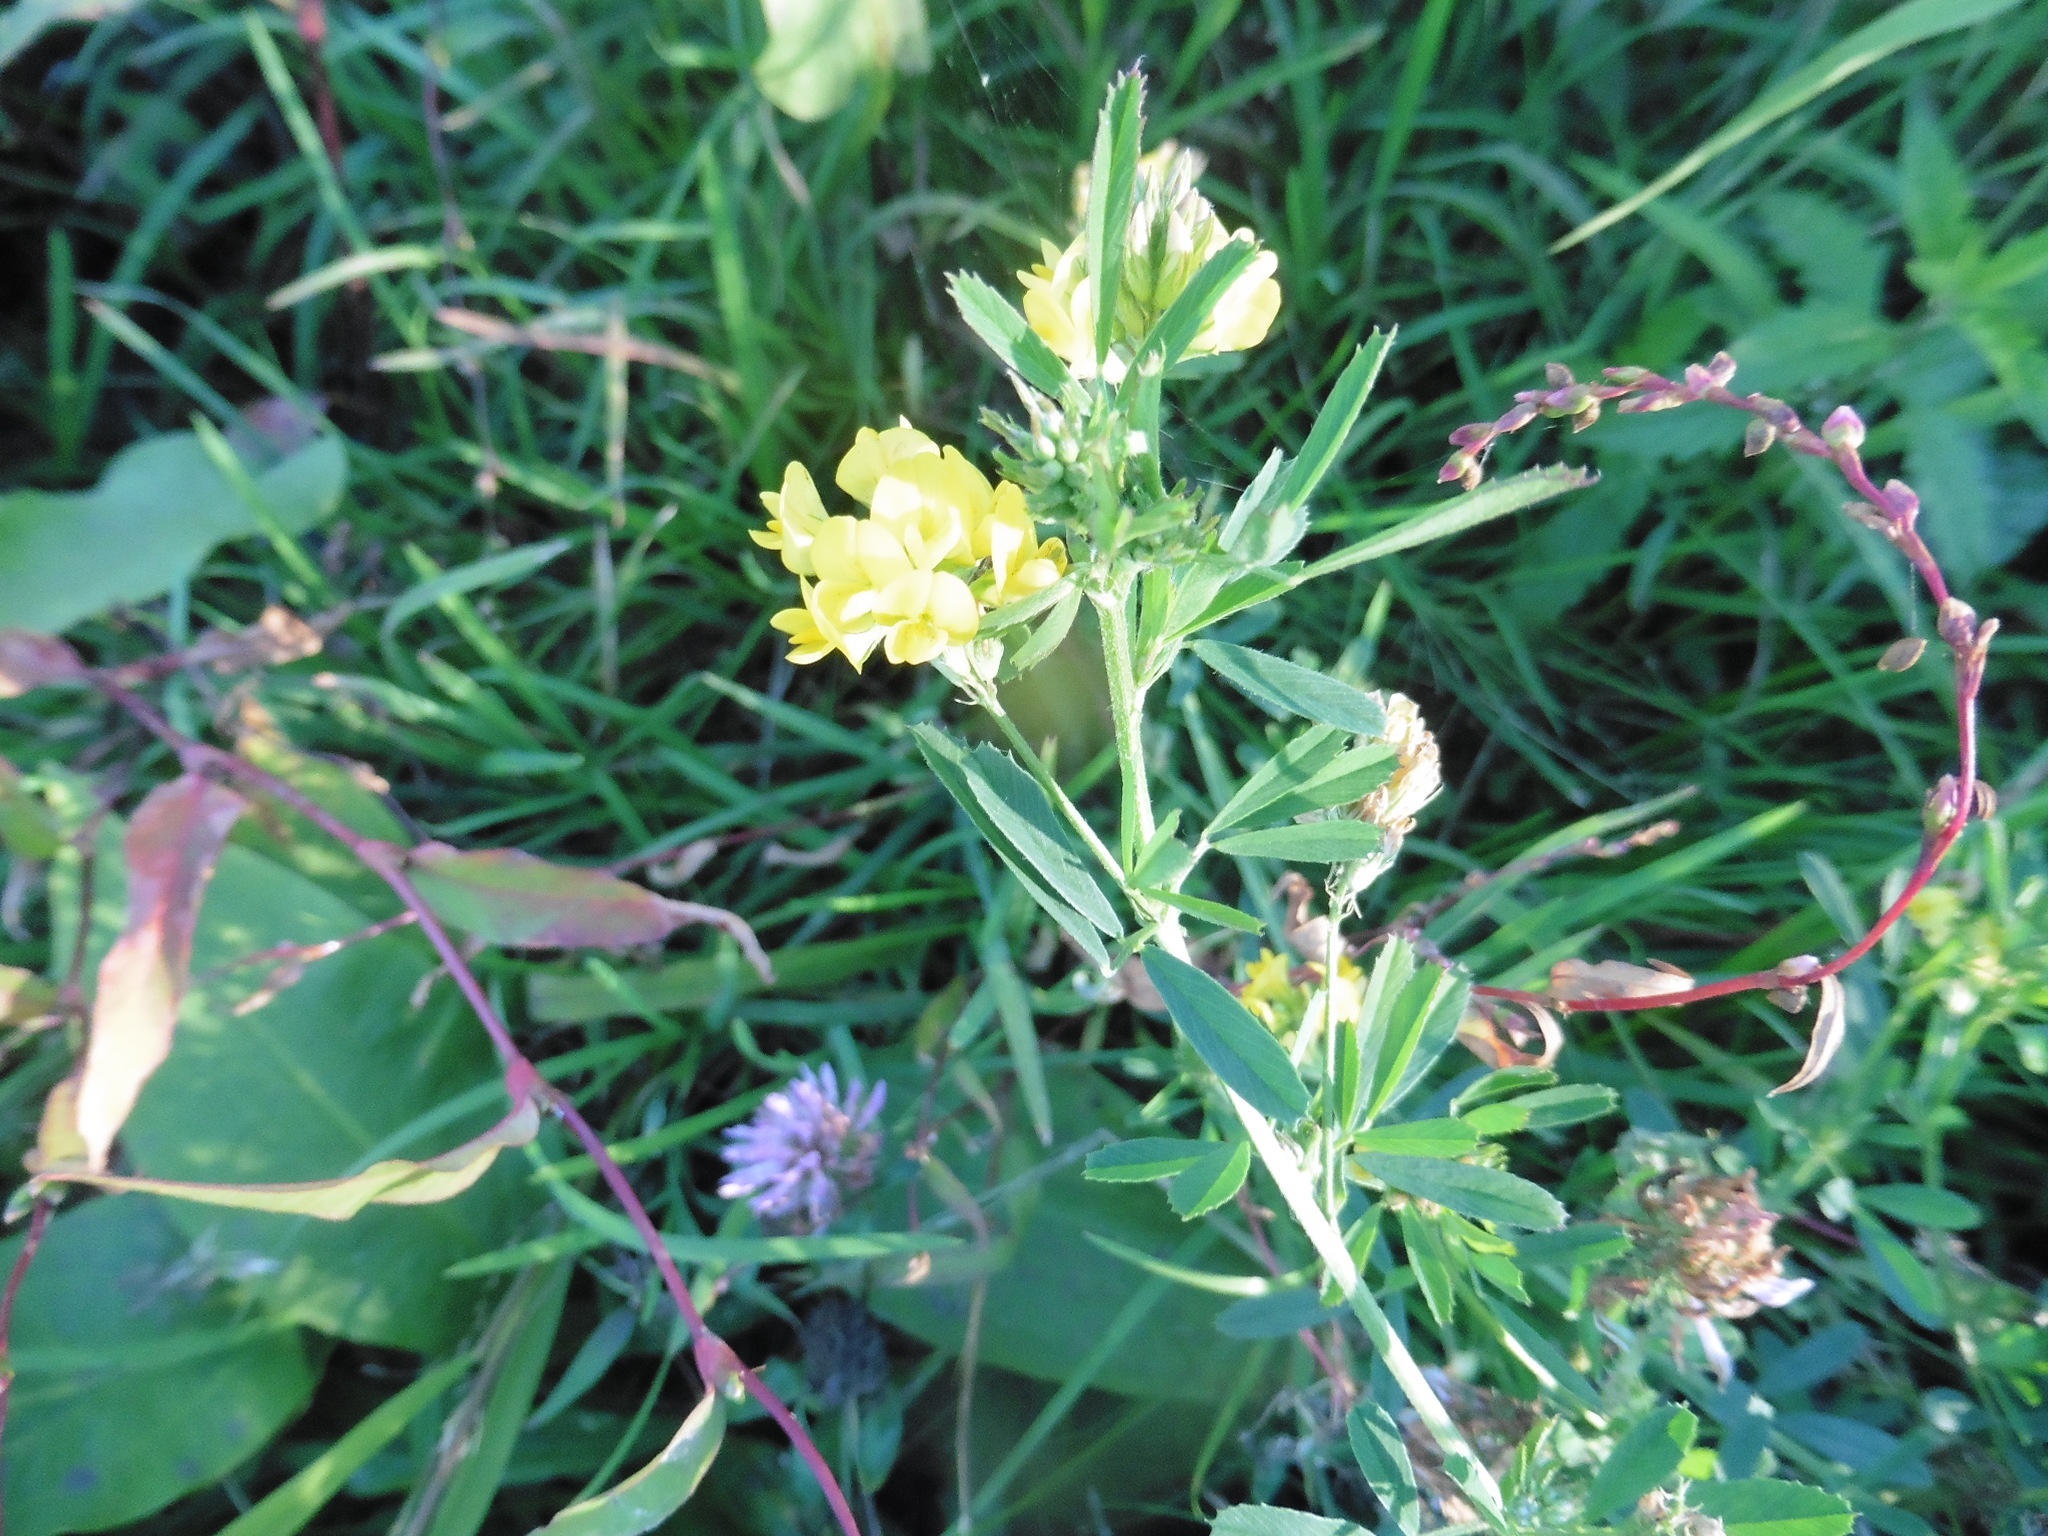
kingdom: Plantae
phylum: Tracheophyta
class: Magnoliopsida
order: Fabales
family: Fabaceae
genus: Medicago
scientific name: Medicago falcata
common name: Sickle medick
